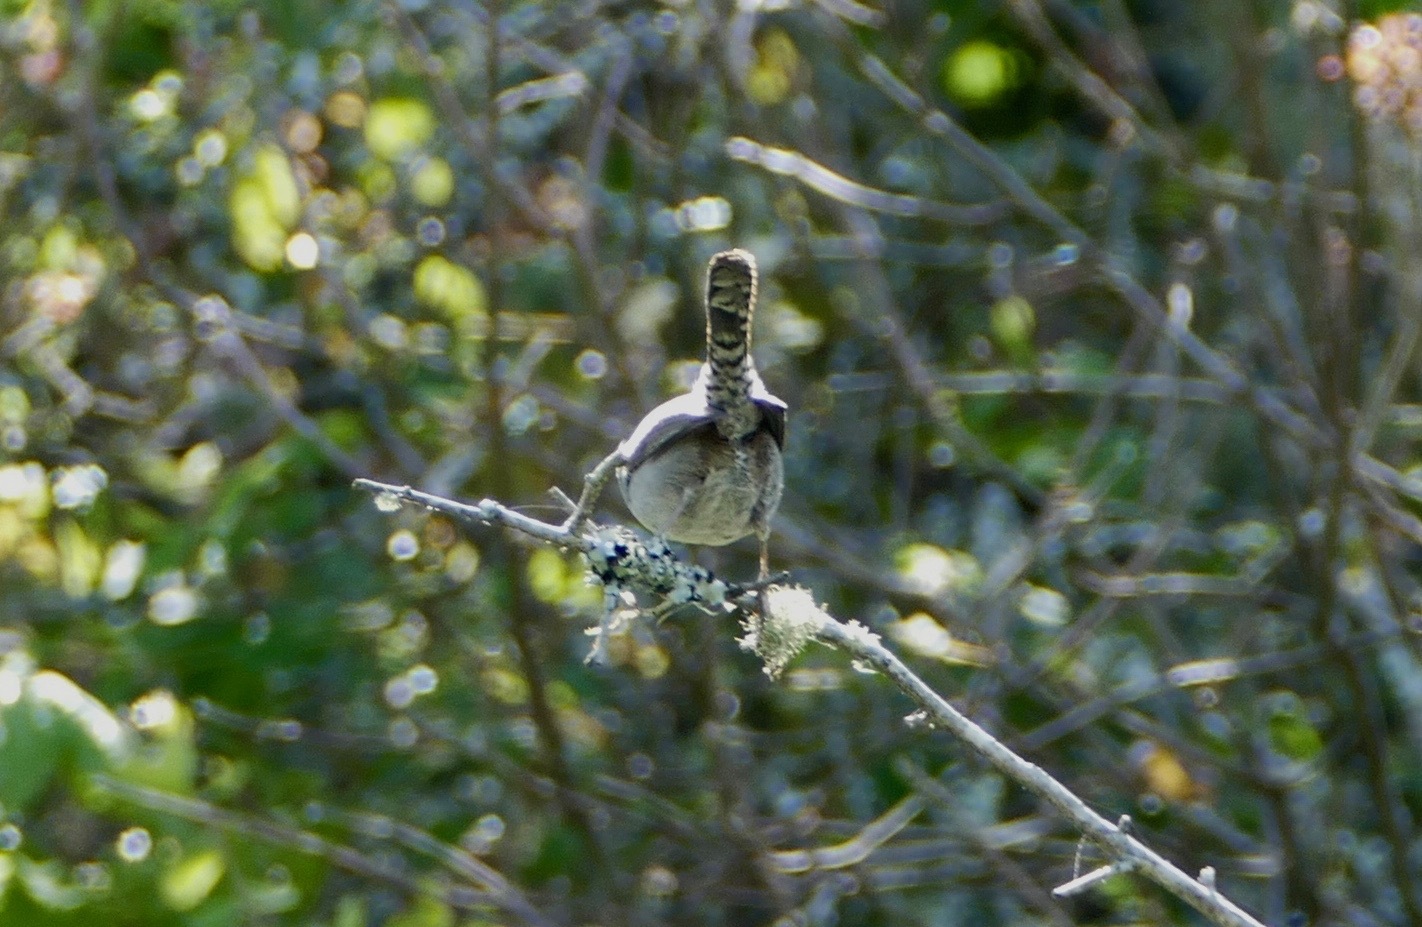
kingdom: Animalia
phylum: Chordata
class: Aves
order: Passeriformes
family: Troglodytidae
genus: Thryomanes
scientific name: Thryomanes bewickii
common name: Bewick's wren
